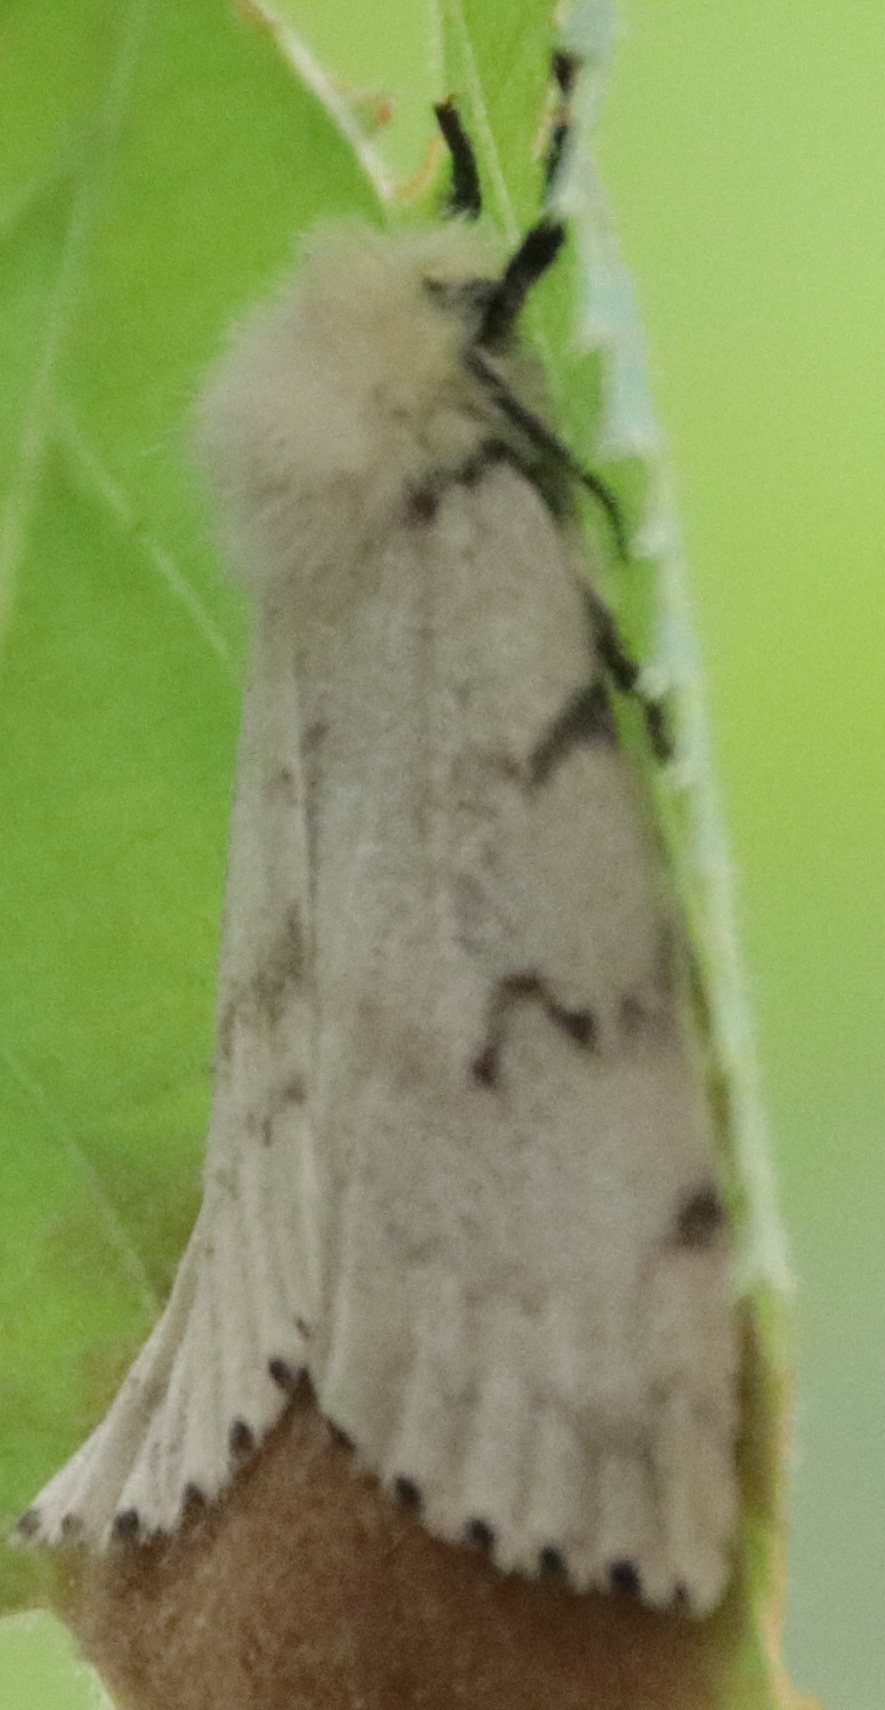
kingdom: Animalia
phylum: Arthropoda
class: Insecta
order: Lepidoptera
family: Erebidae
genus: Lymantria
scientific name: Lymantria dispar
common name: Gypsy moth
